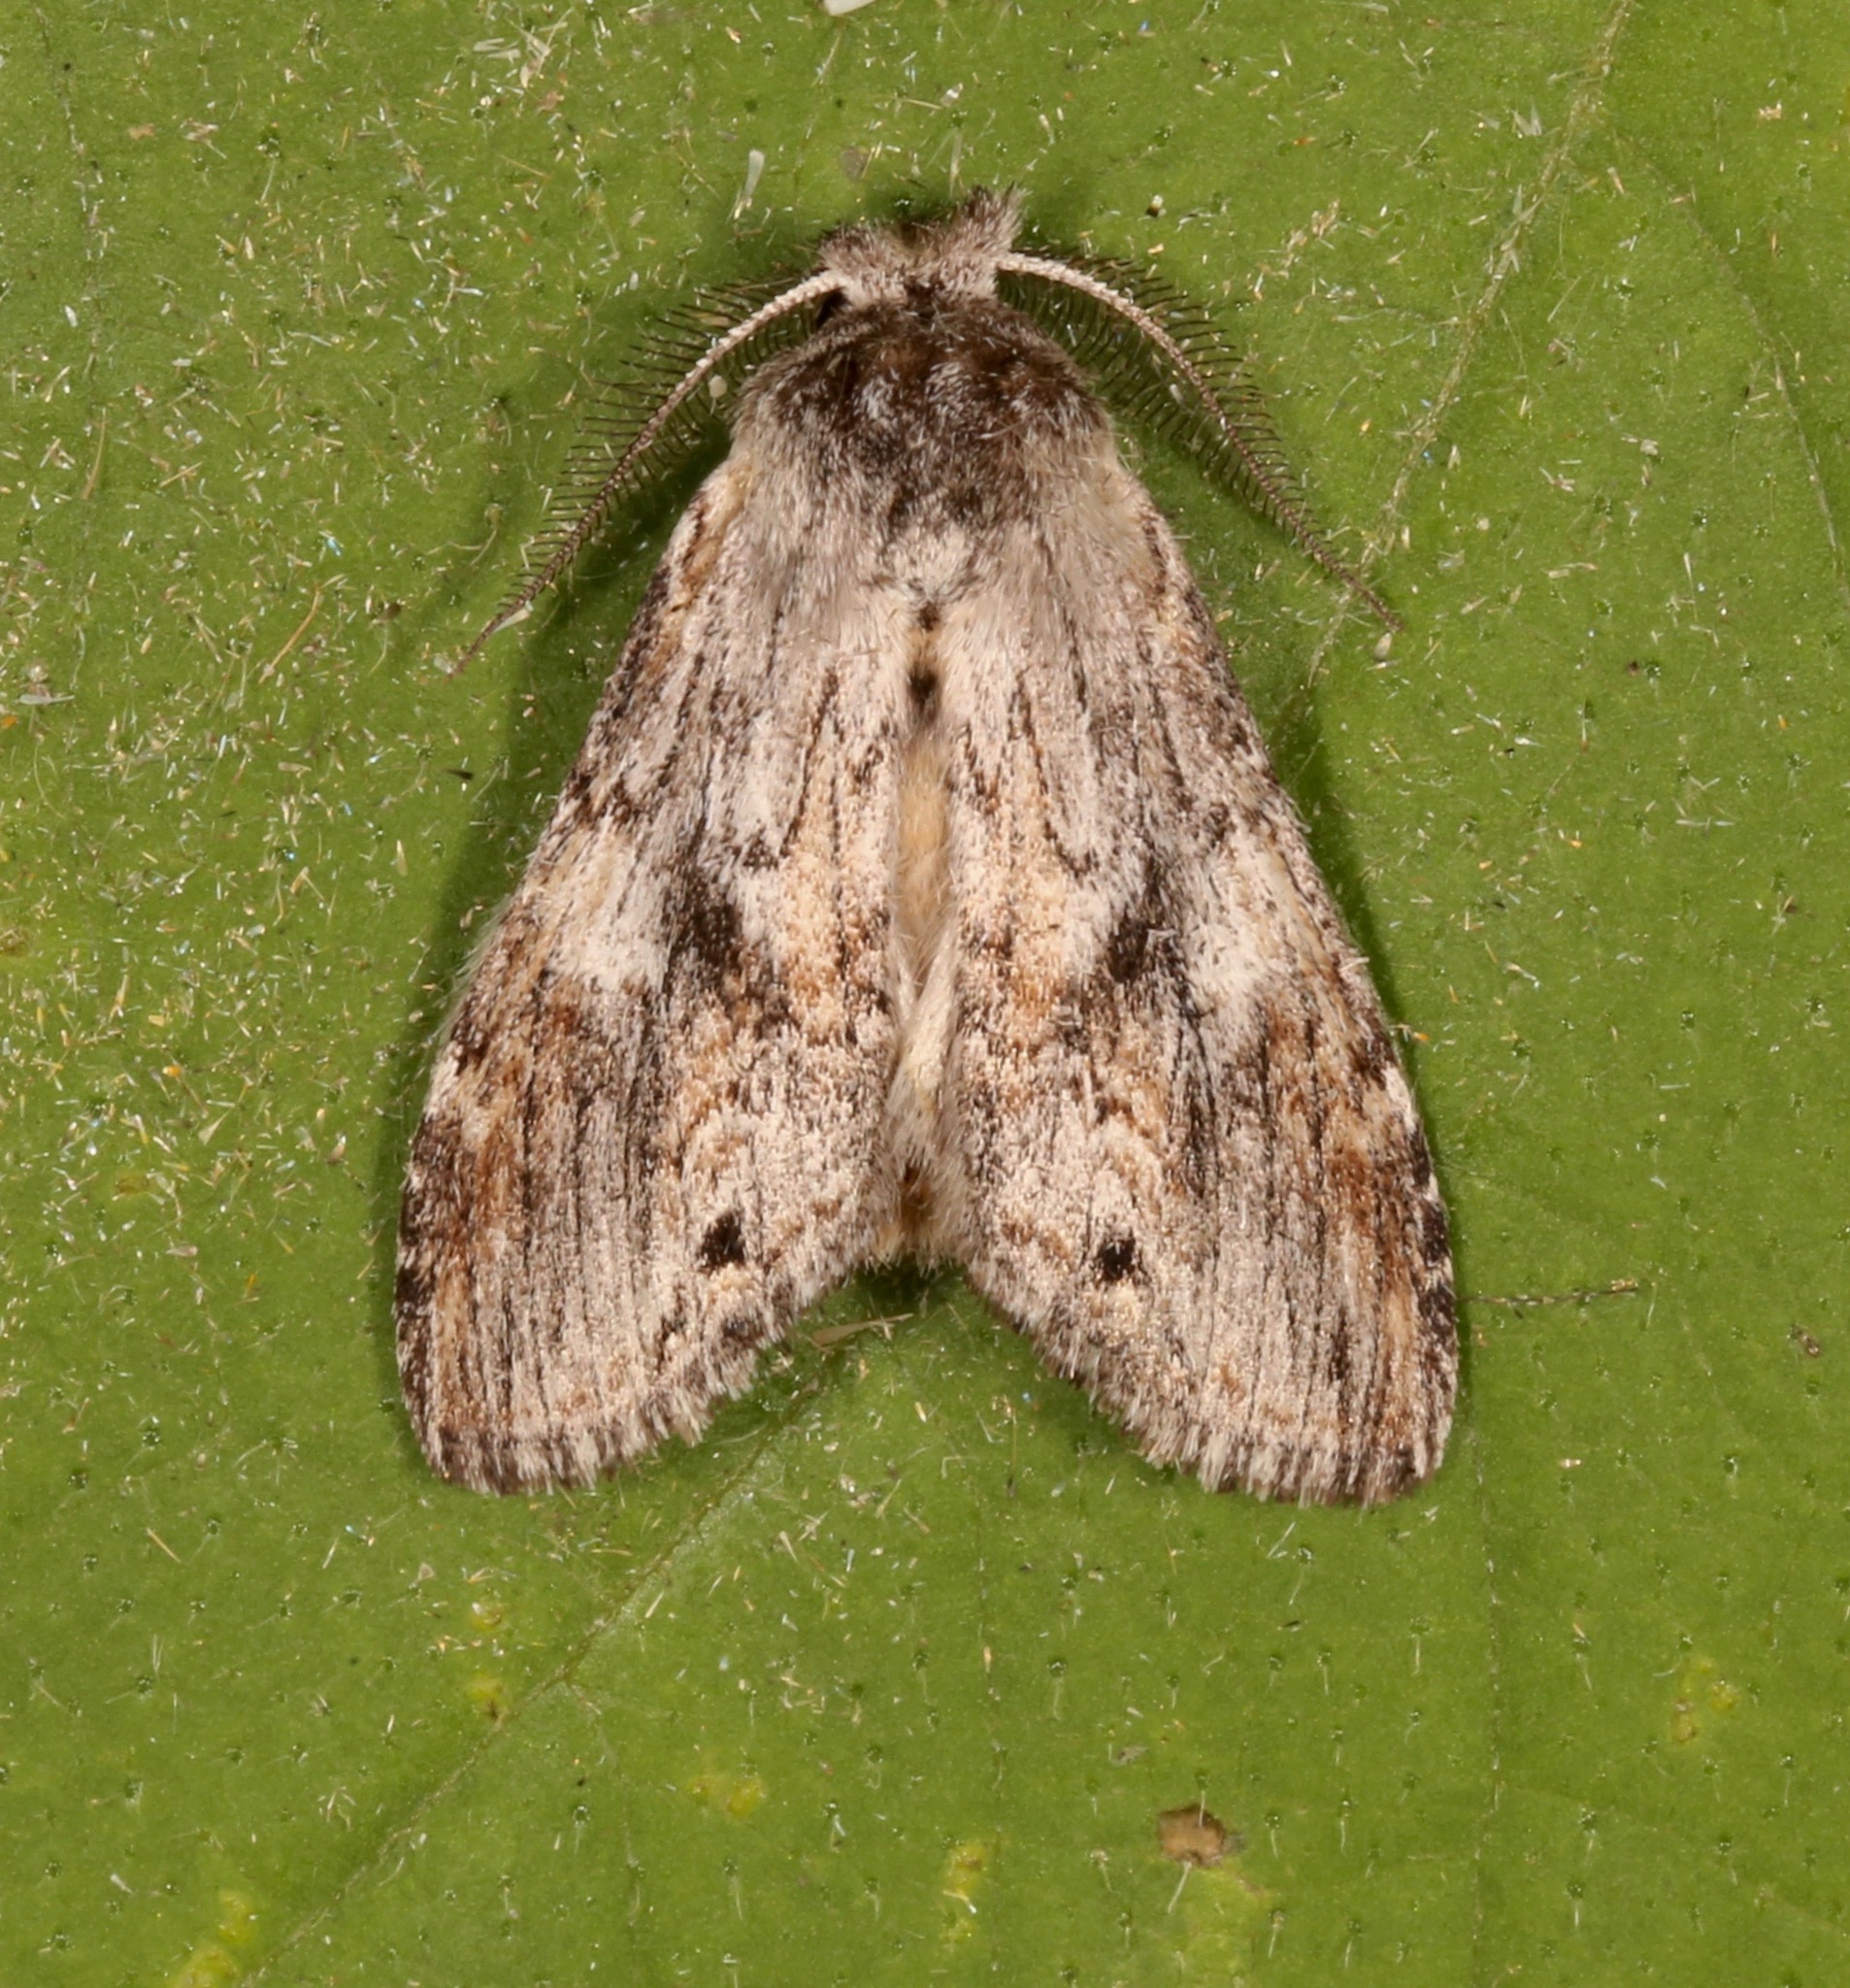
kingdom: Animalia
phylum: Arthropoda
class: Insecta
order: Lepidoptera
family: Notodontidae
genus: Notela
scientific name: Notela jaliscana
